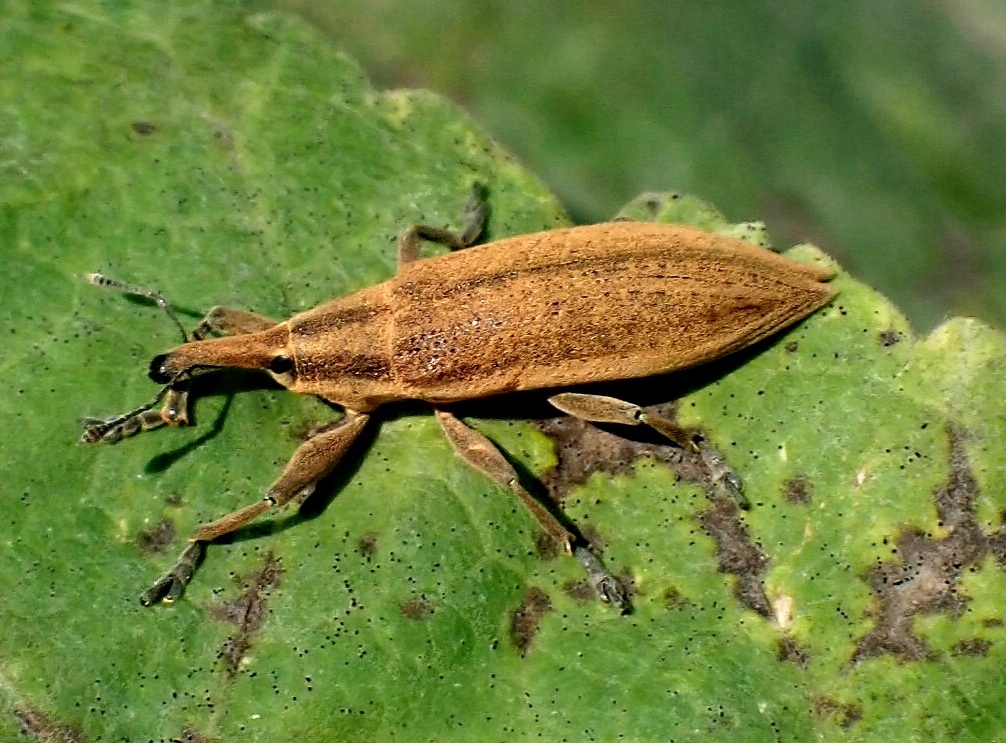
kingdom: Animalia
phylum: Arthropoda
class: Insecta
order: Coleoptera
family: Curculionidae
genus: Lixus
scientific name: Lixus iridis
